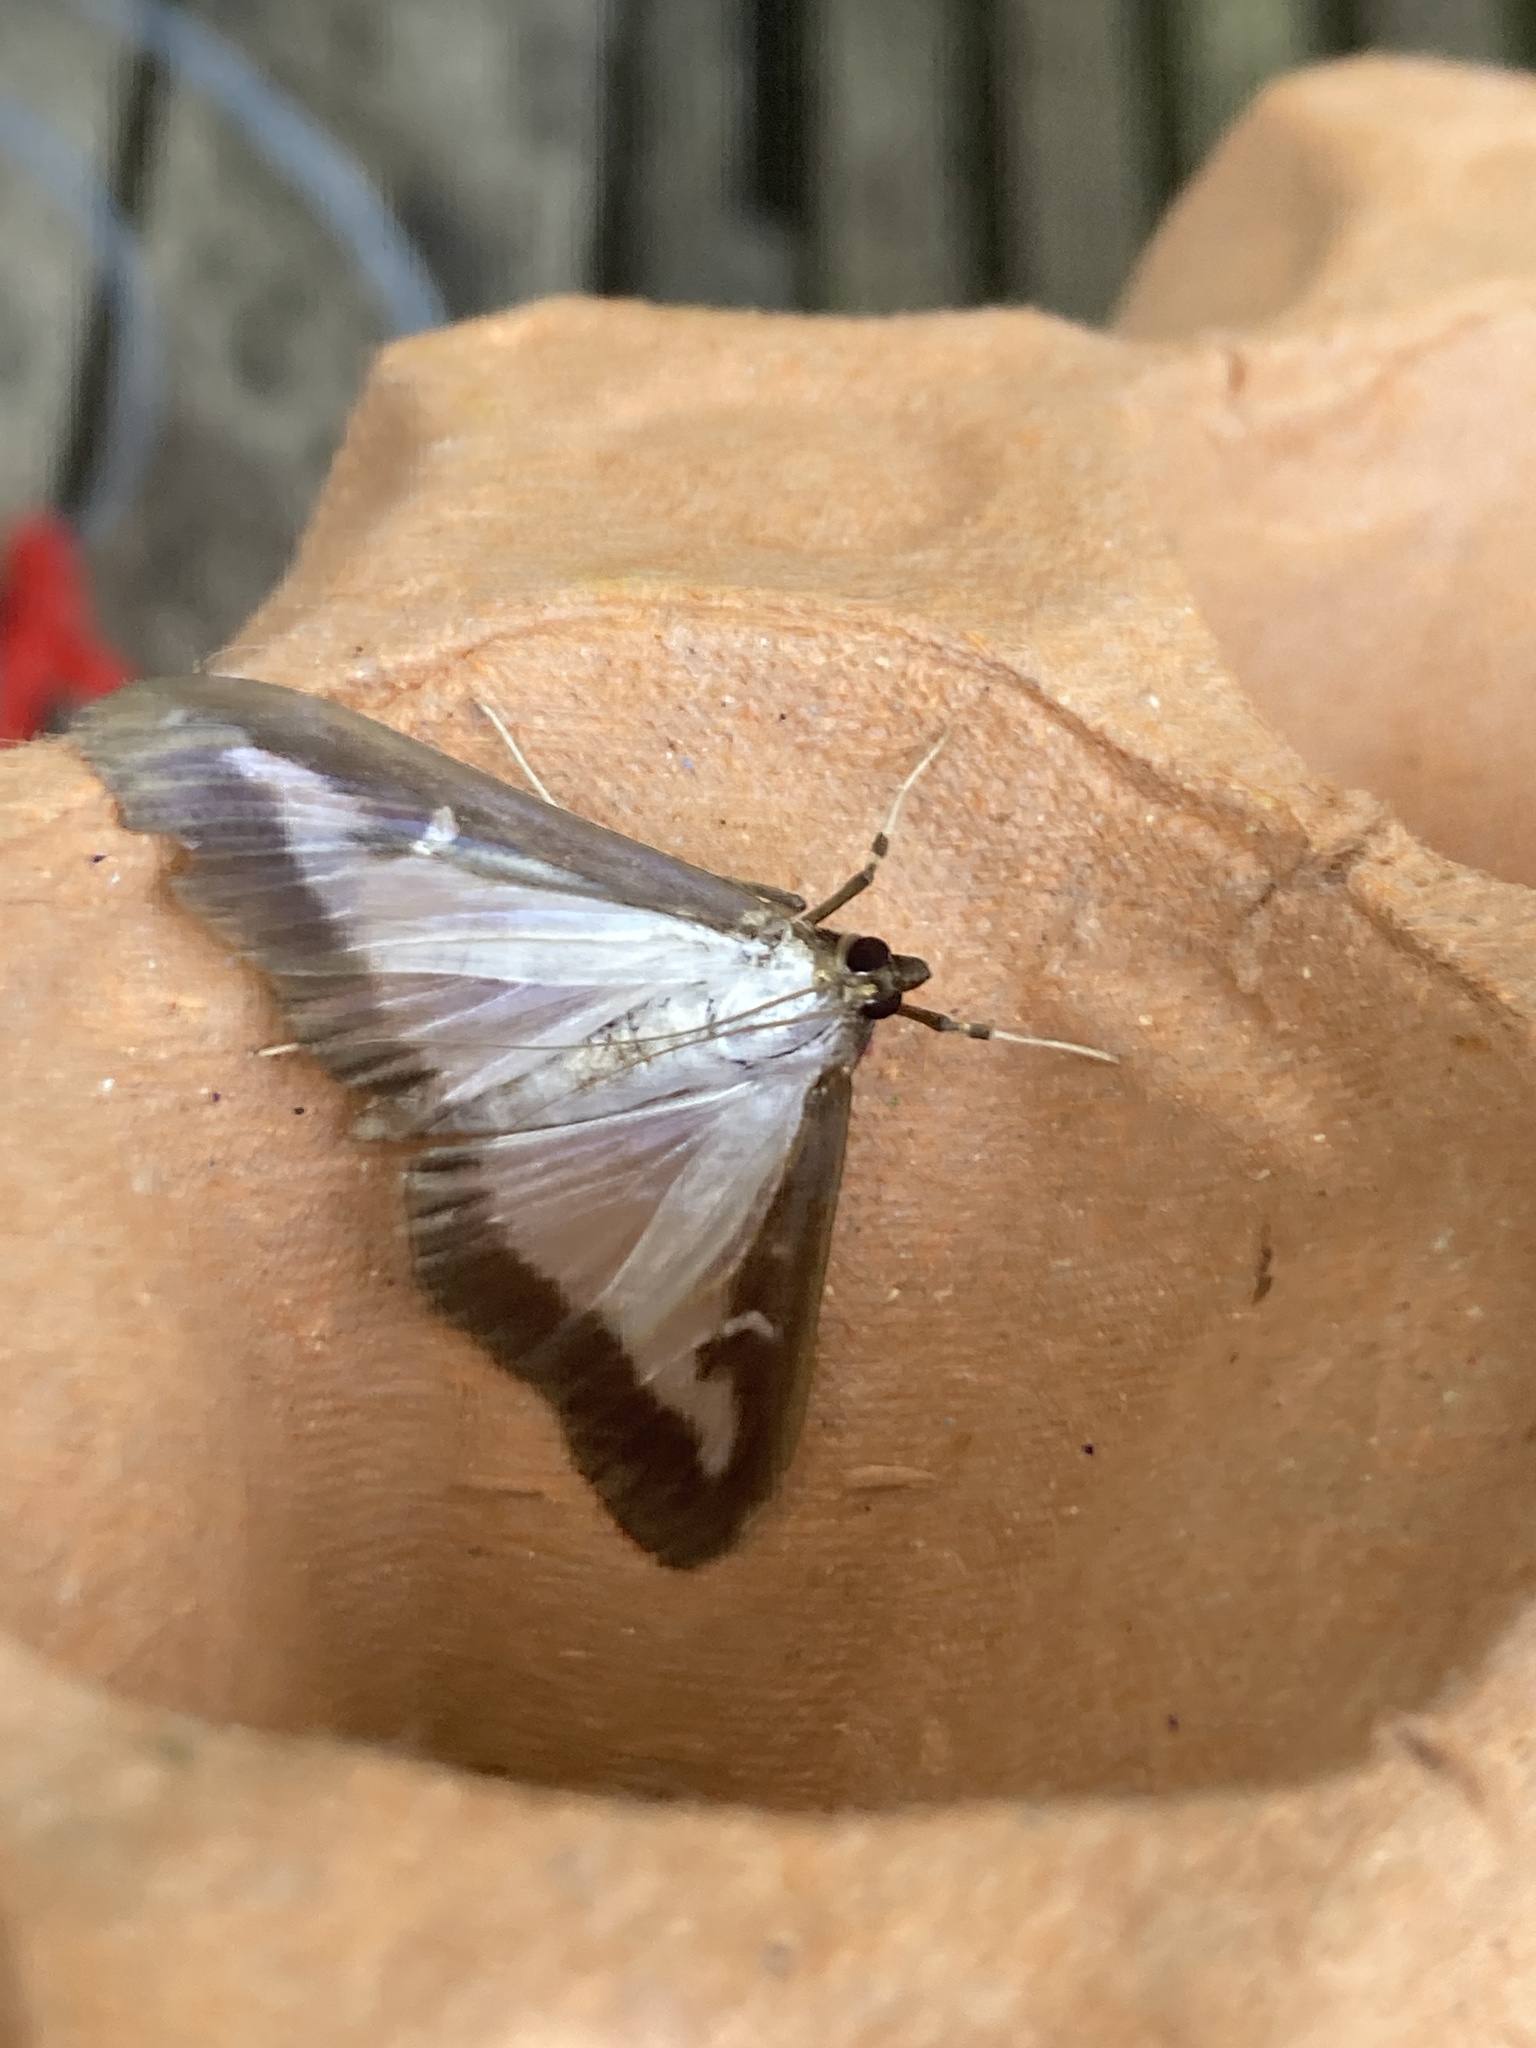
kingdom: Animalia
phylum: Arthropoda
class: Insecta
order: Lepidoptera
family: Crambidae
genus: Cydalima
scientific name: Cydalima perspectalis
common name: Box tree moth
